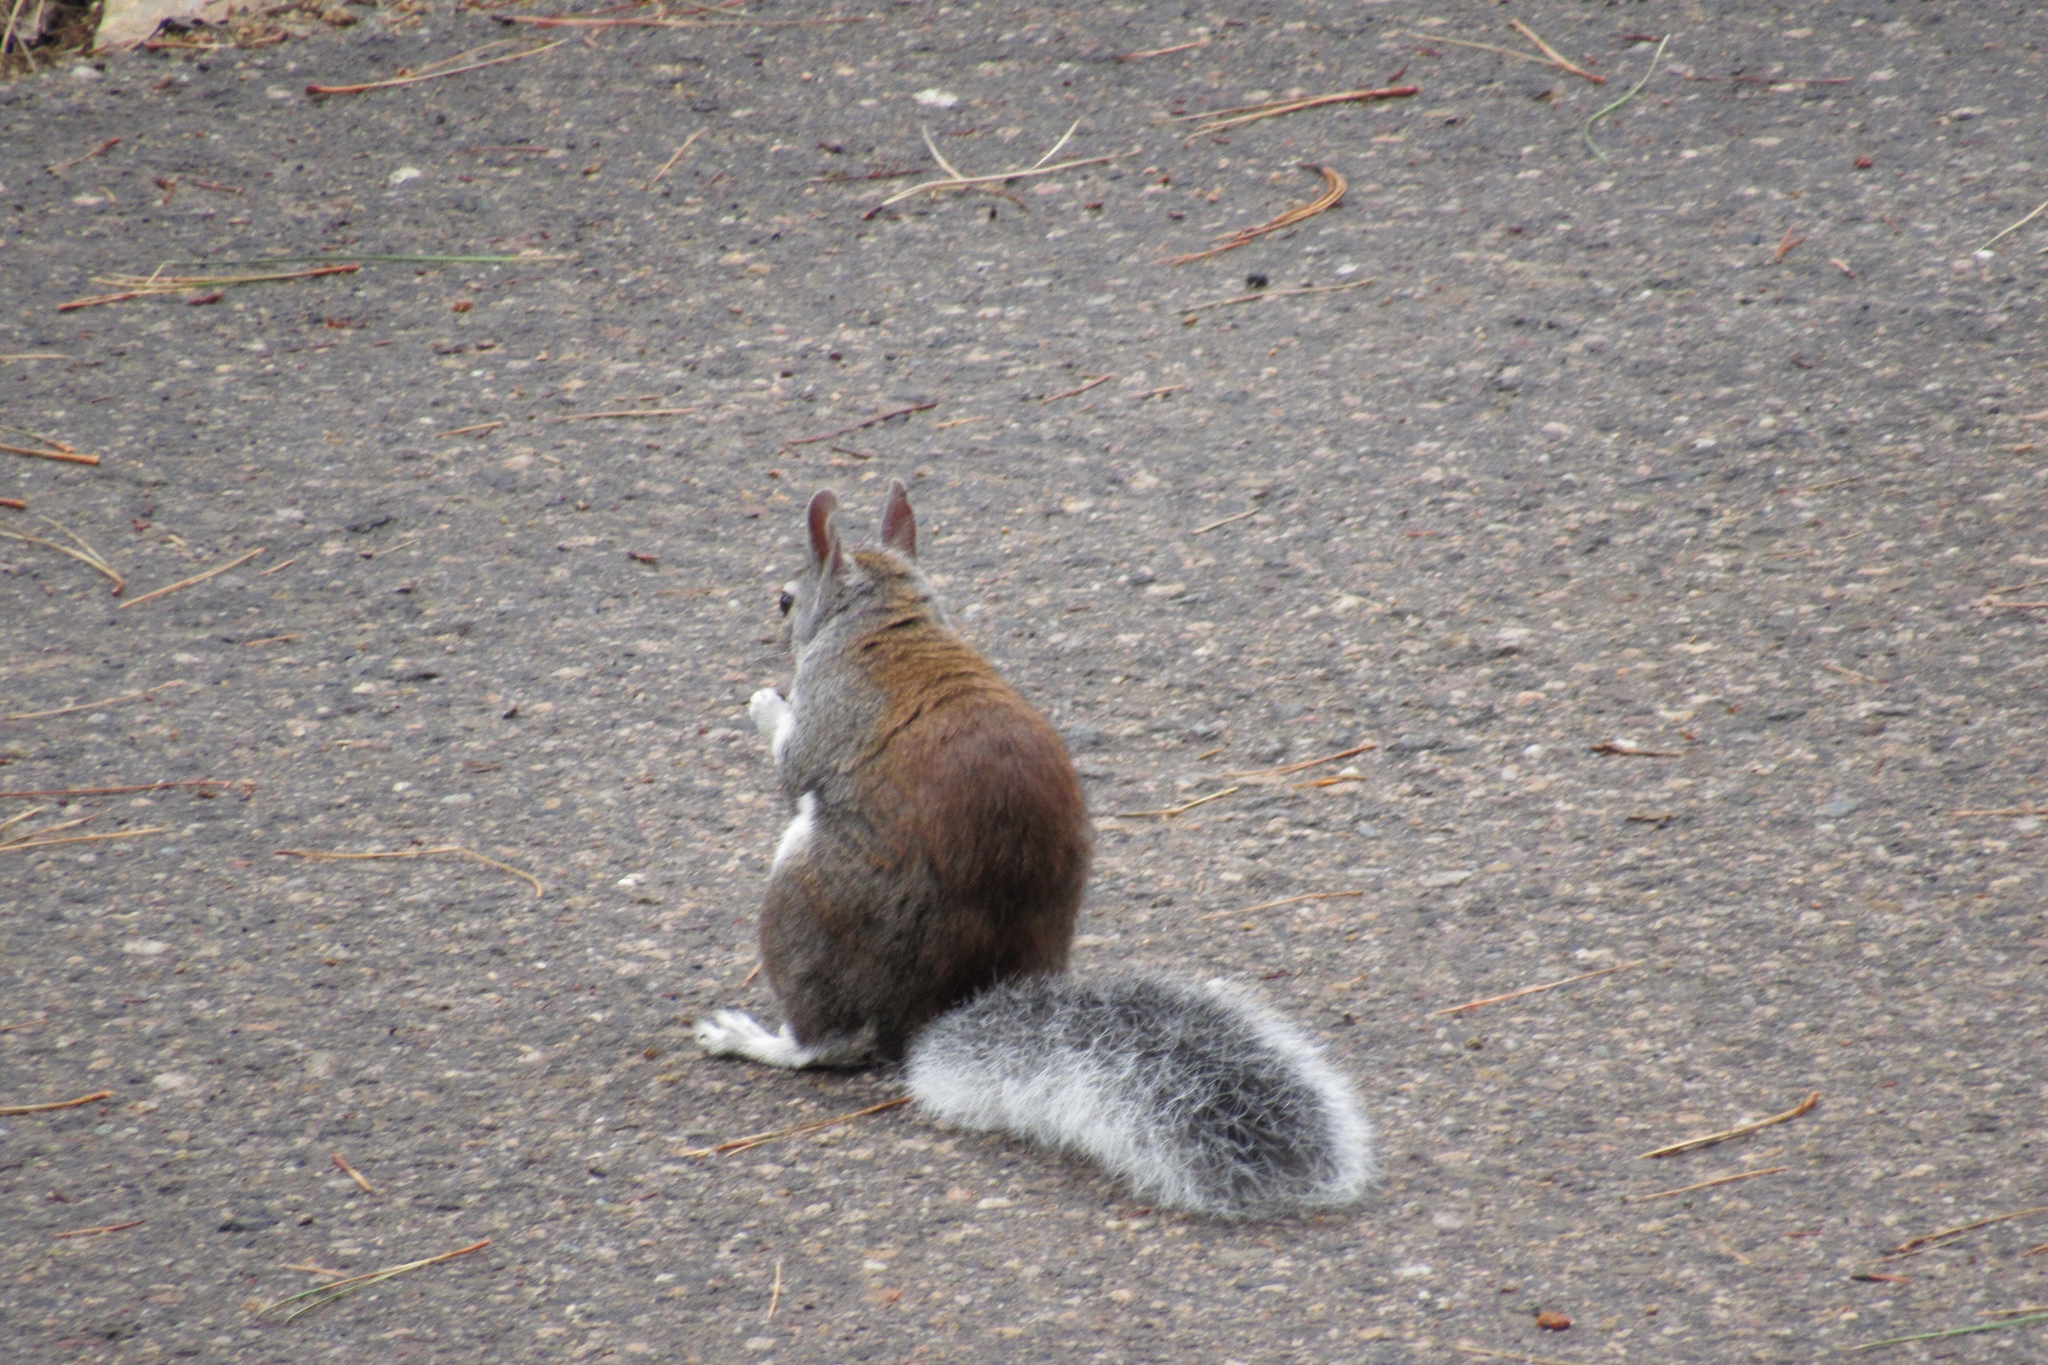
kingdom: Animalia
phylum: Chordata
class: Mammalia
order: Rodentia
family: Sciuridae
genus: Sciurus
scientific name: Sciurus aberti
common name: Abert's squirrel
